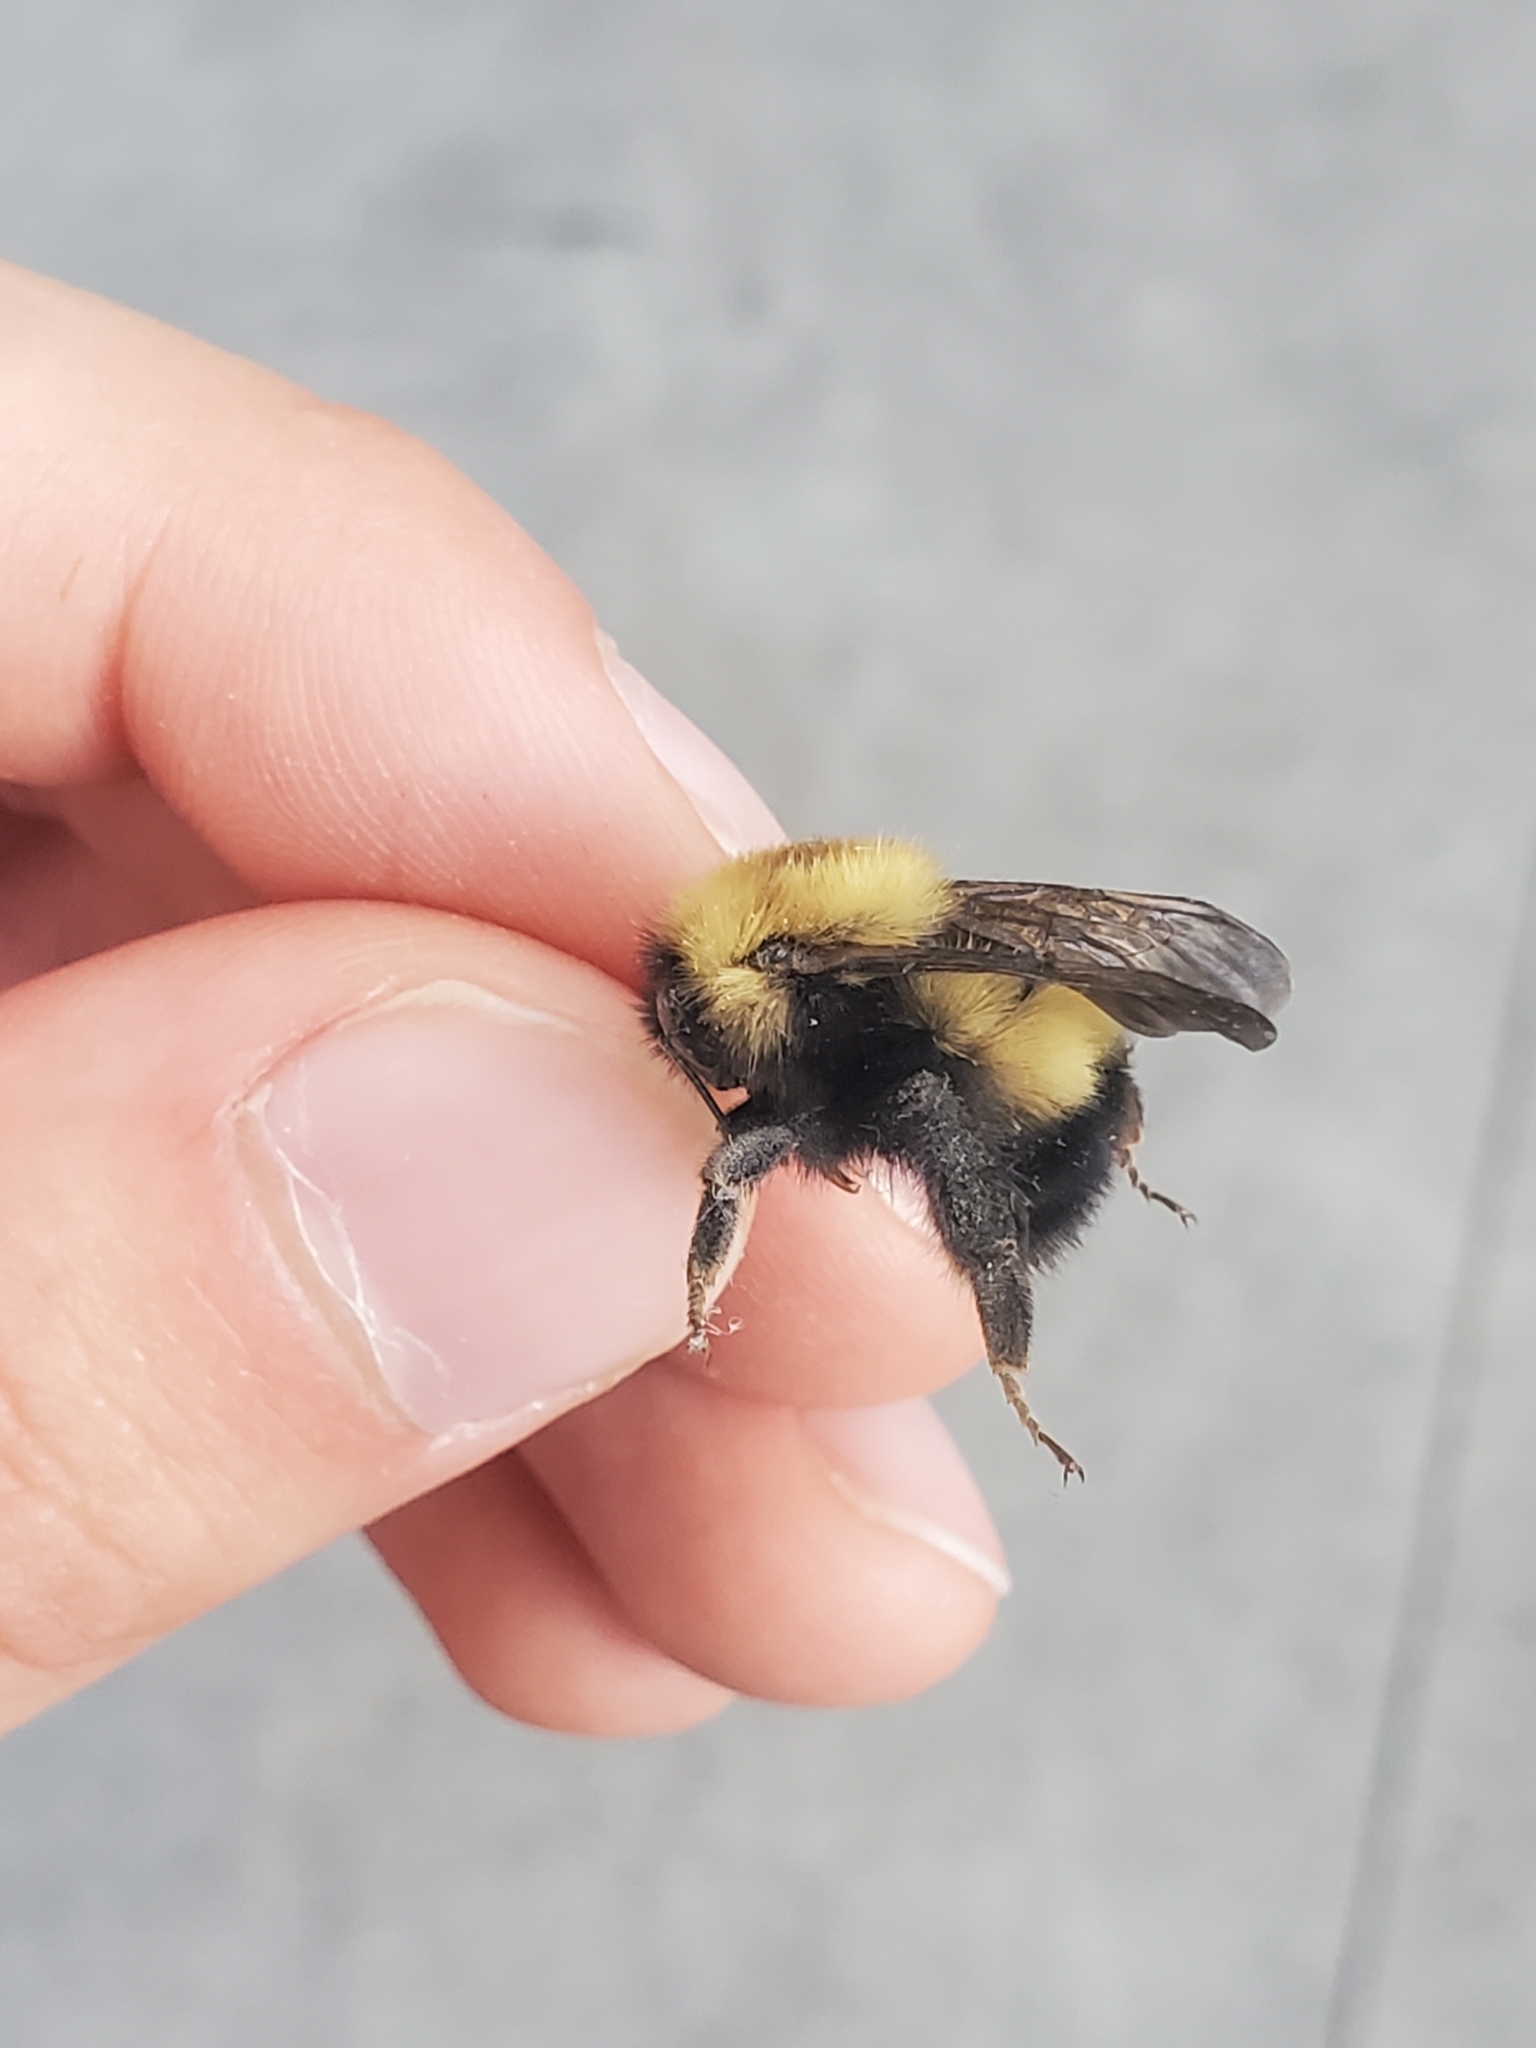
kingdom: Animalia
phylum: Arthropoda
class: Insecta
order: Hymenoptera
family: Apidae
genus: Bombus
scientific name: Bombus perplexus
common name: Confusing bumble bee
